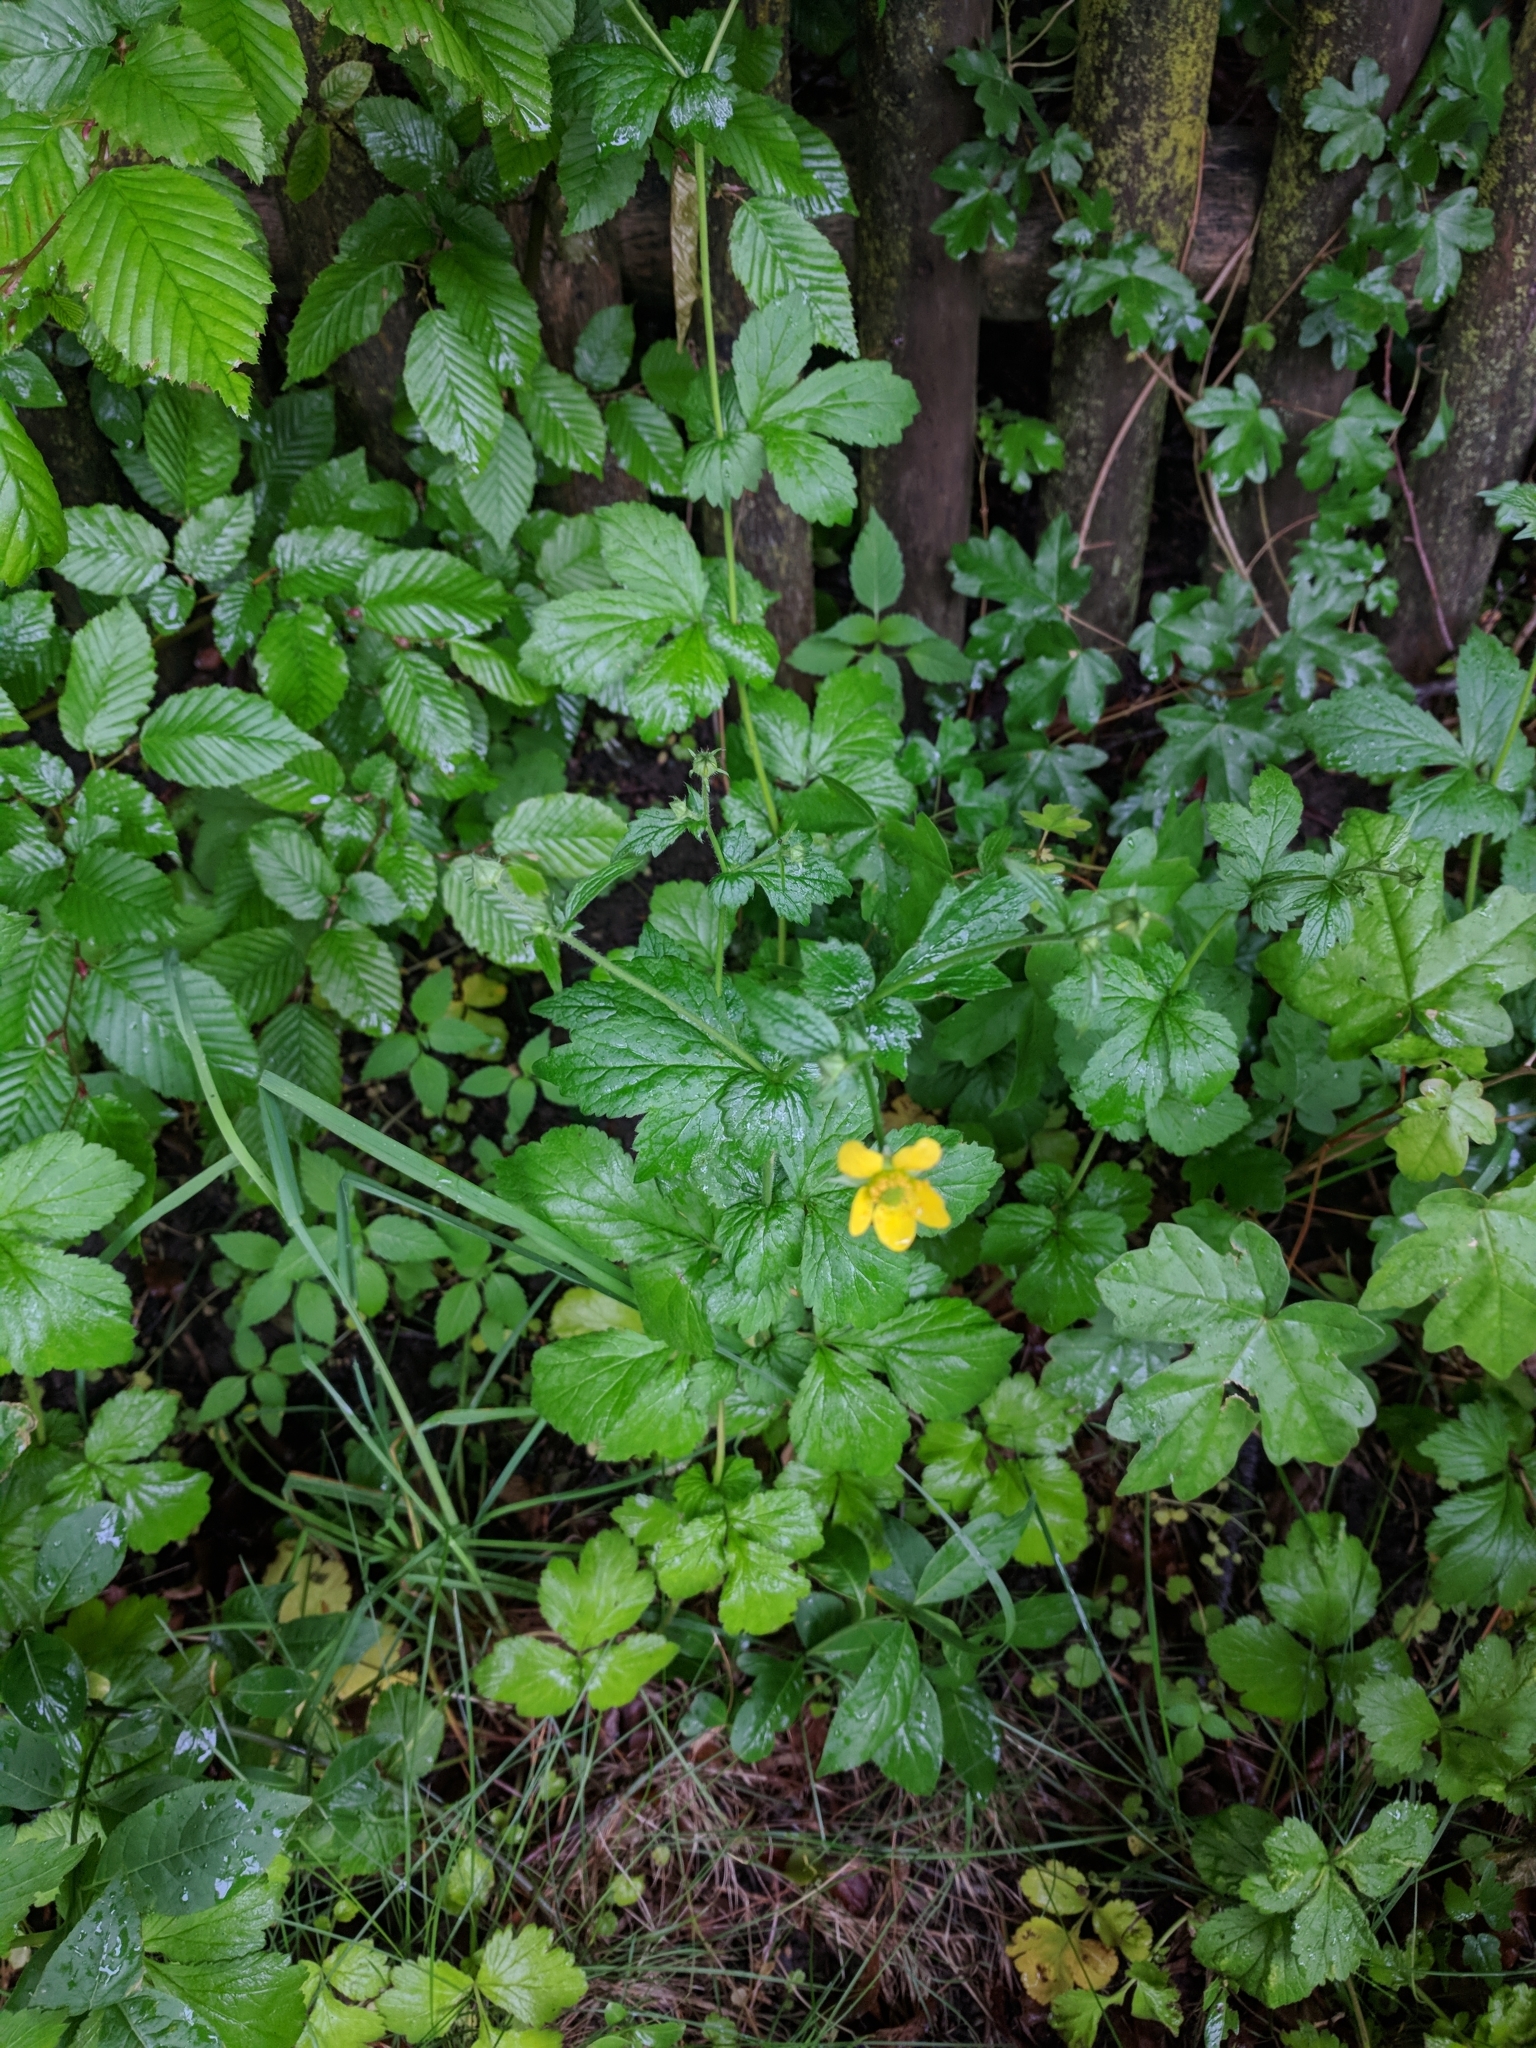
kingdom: Plantae
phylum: Tracheophyta
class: Magnoliopsida
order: Rosales
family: Rosaceae
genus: Geum
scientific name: Geum urbanum
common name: Wood avens
